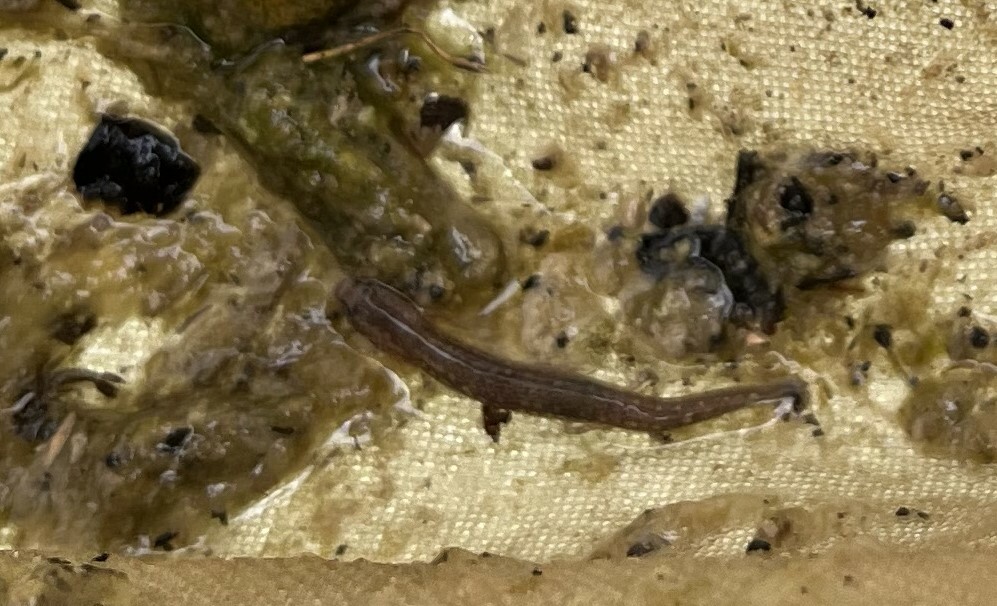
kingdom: Animalia
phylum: Chordata
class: Amphibia
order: Caudata
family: Plethodontidae
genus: Eurycea
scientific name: Eurycea troglodytes
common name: Valdina farms salamander
